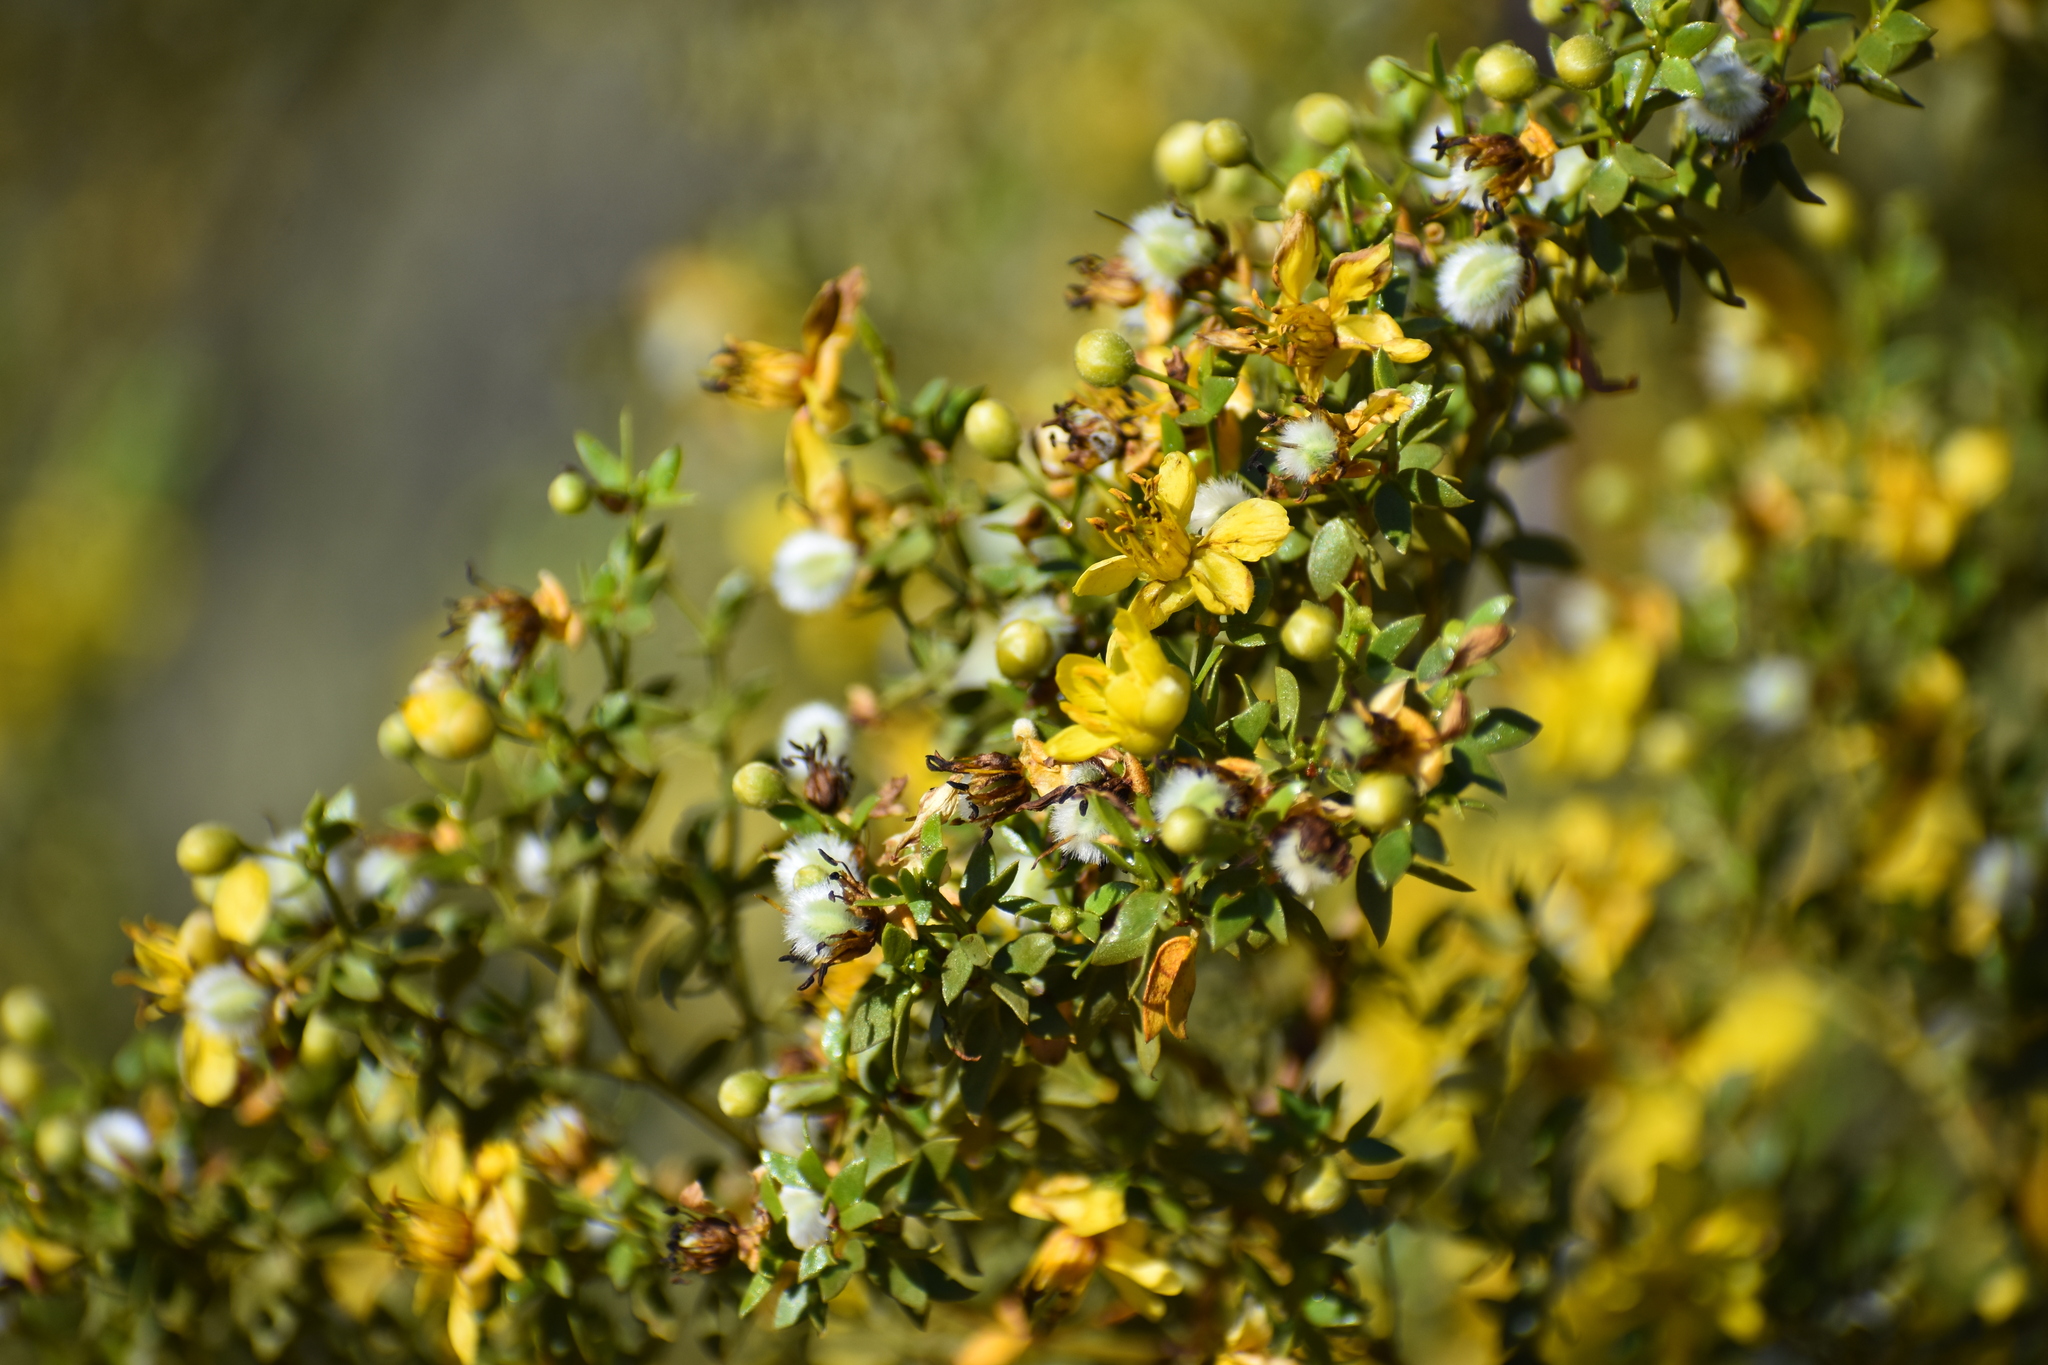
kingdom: Plantae
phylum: Tracheophyta
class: Magnoliopsida
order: Zygophyllales
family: Zygophyllaceae
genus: Larrea
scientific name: Larrea tridentata
